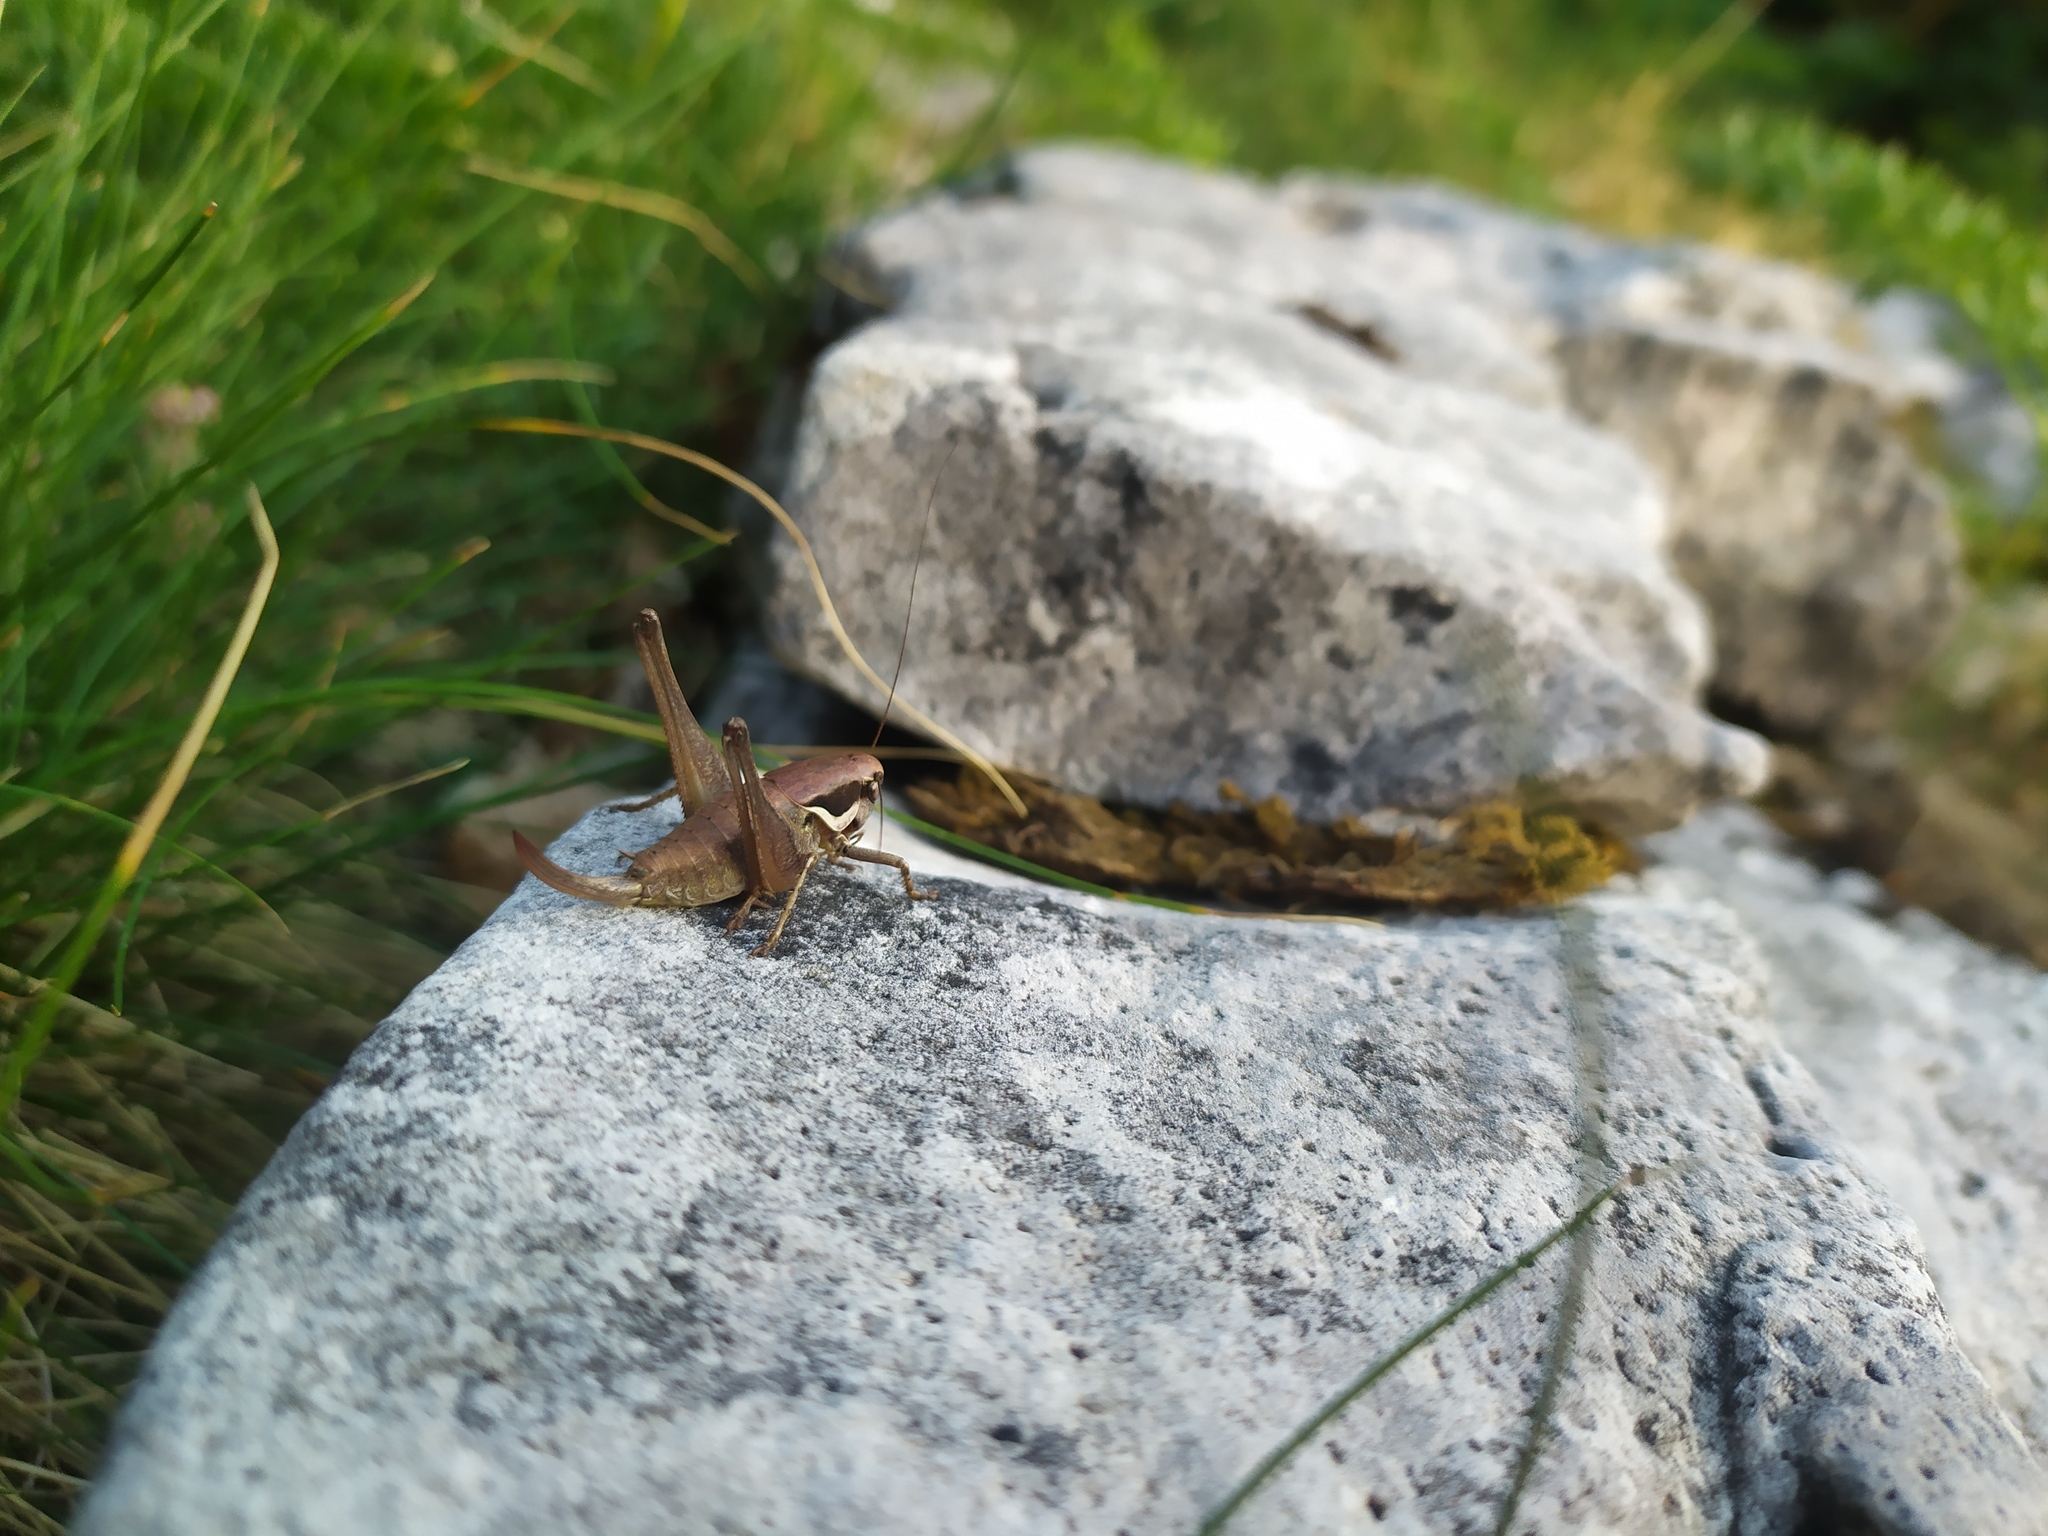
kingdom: Animalia
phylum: Arthropoda
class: Insecta
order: Orthoptera
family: Tettigoniidae
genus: Pholidoptera
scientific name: Pholidoptera fallax
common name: Fischer's bush-cricket
